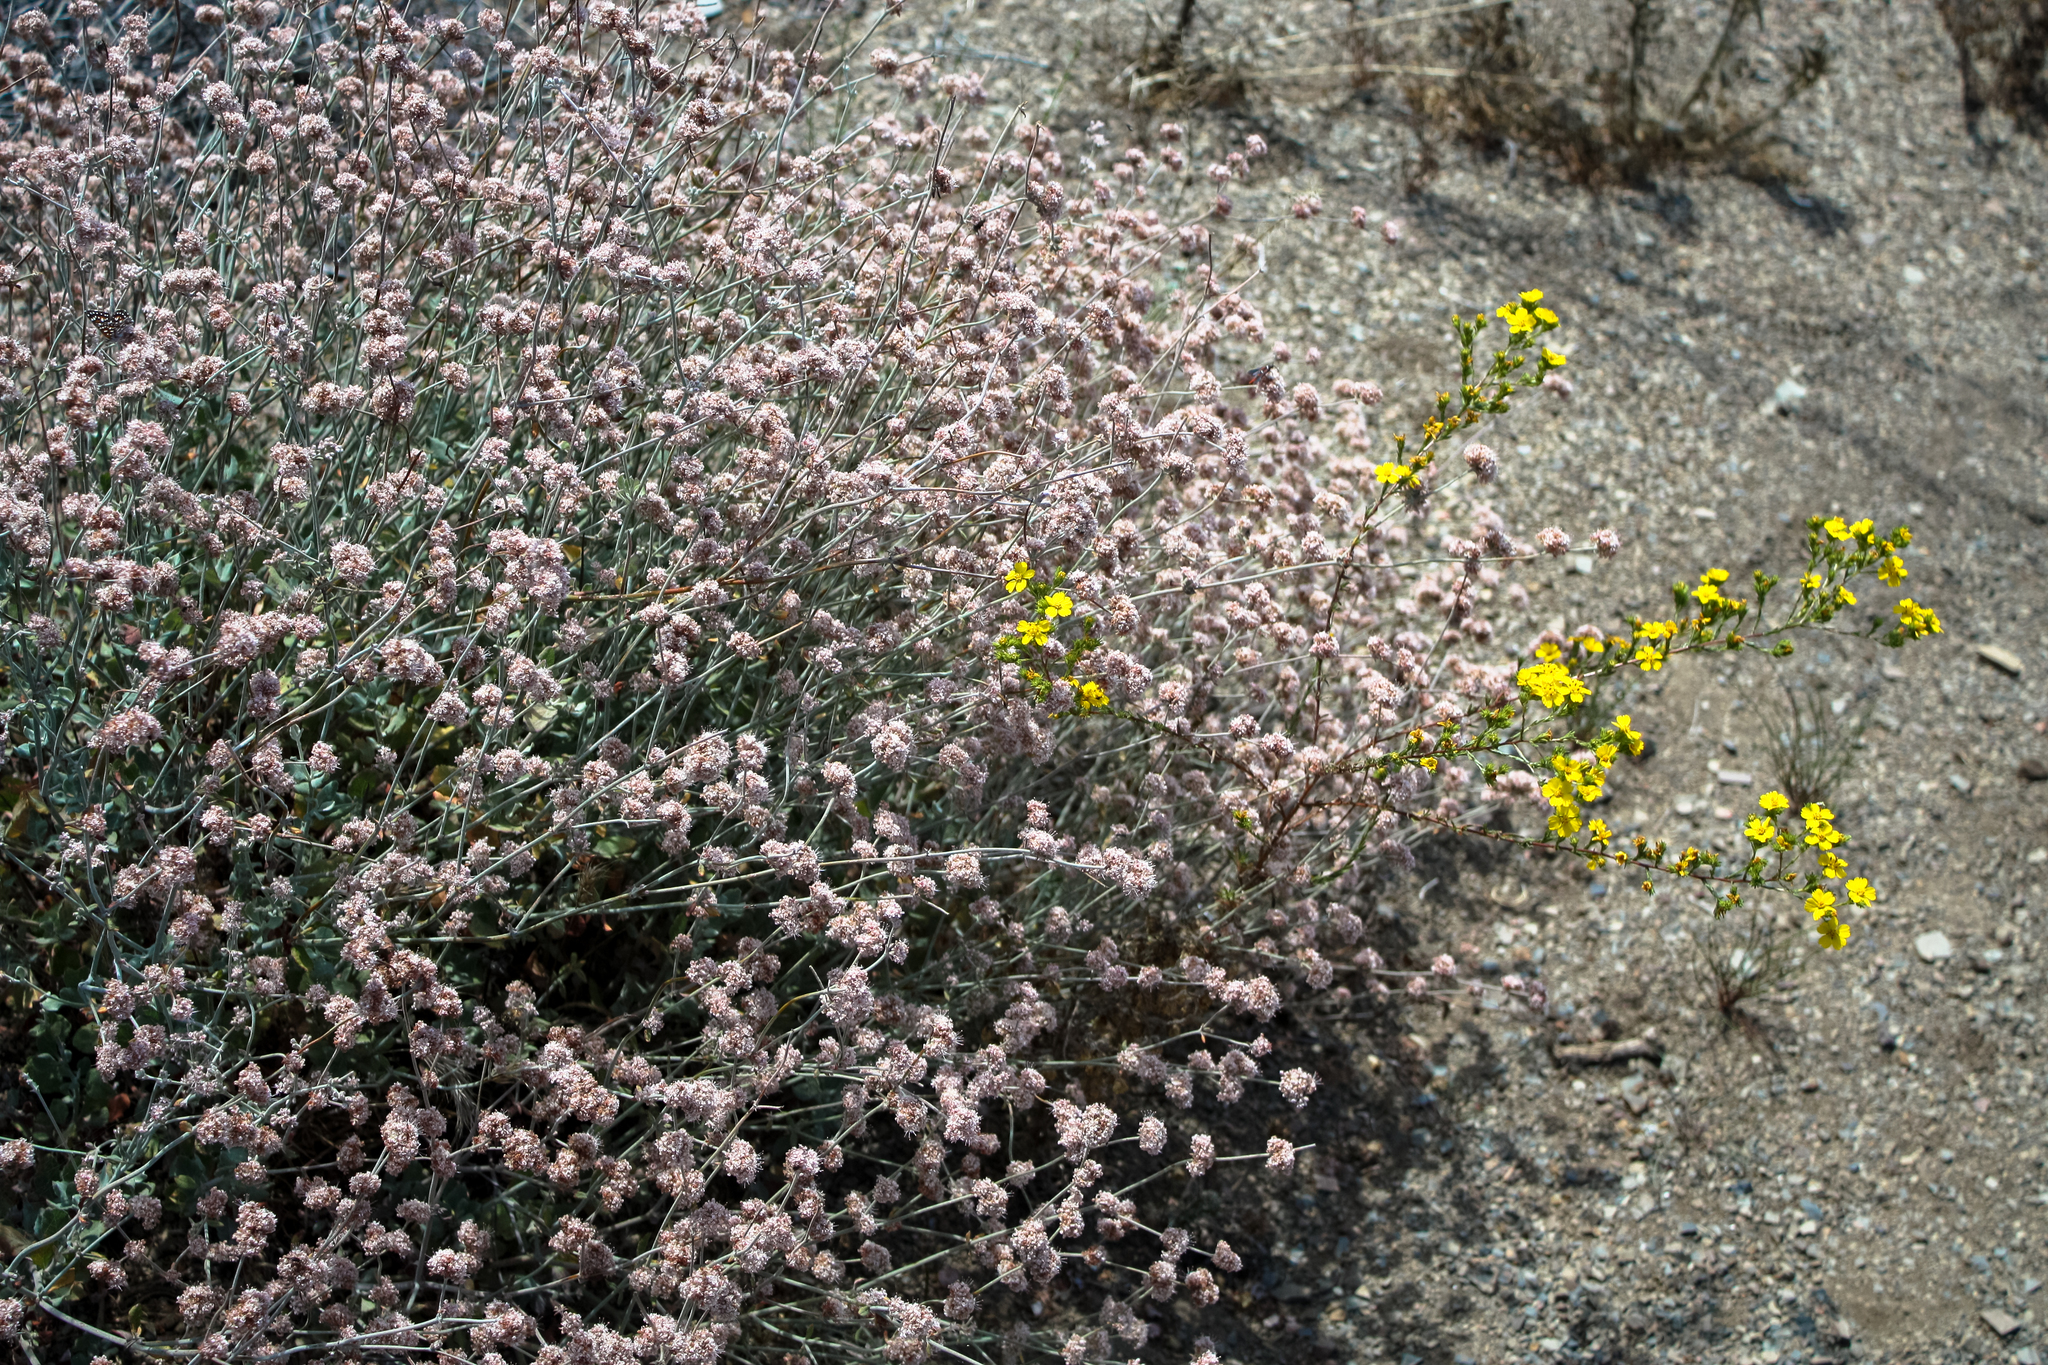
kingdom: Plantae
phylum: Tracheophyta
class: Magnoliopsida
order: Caryophyllales
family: Polygonaceae
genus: Eriogonum
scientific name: Eriogonum cinereum
